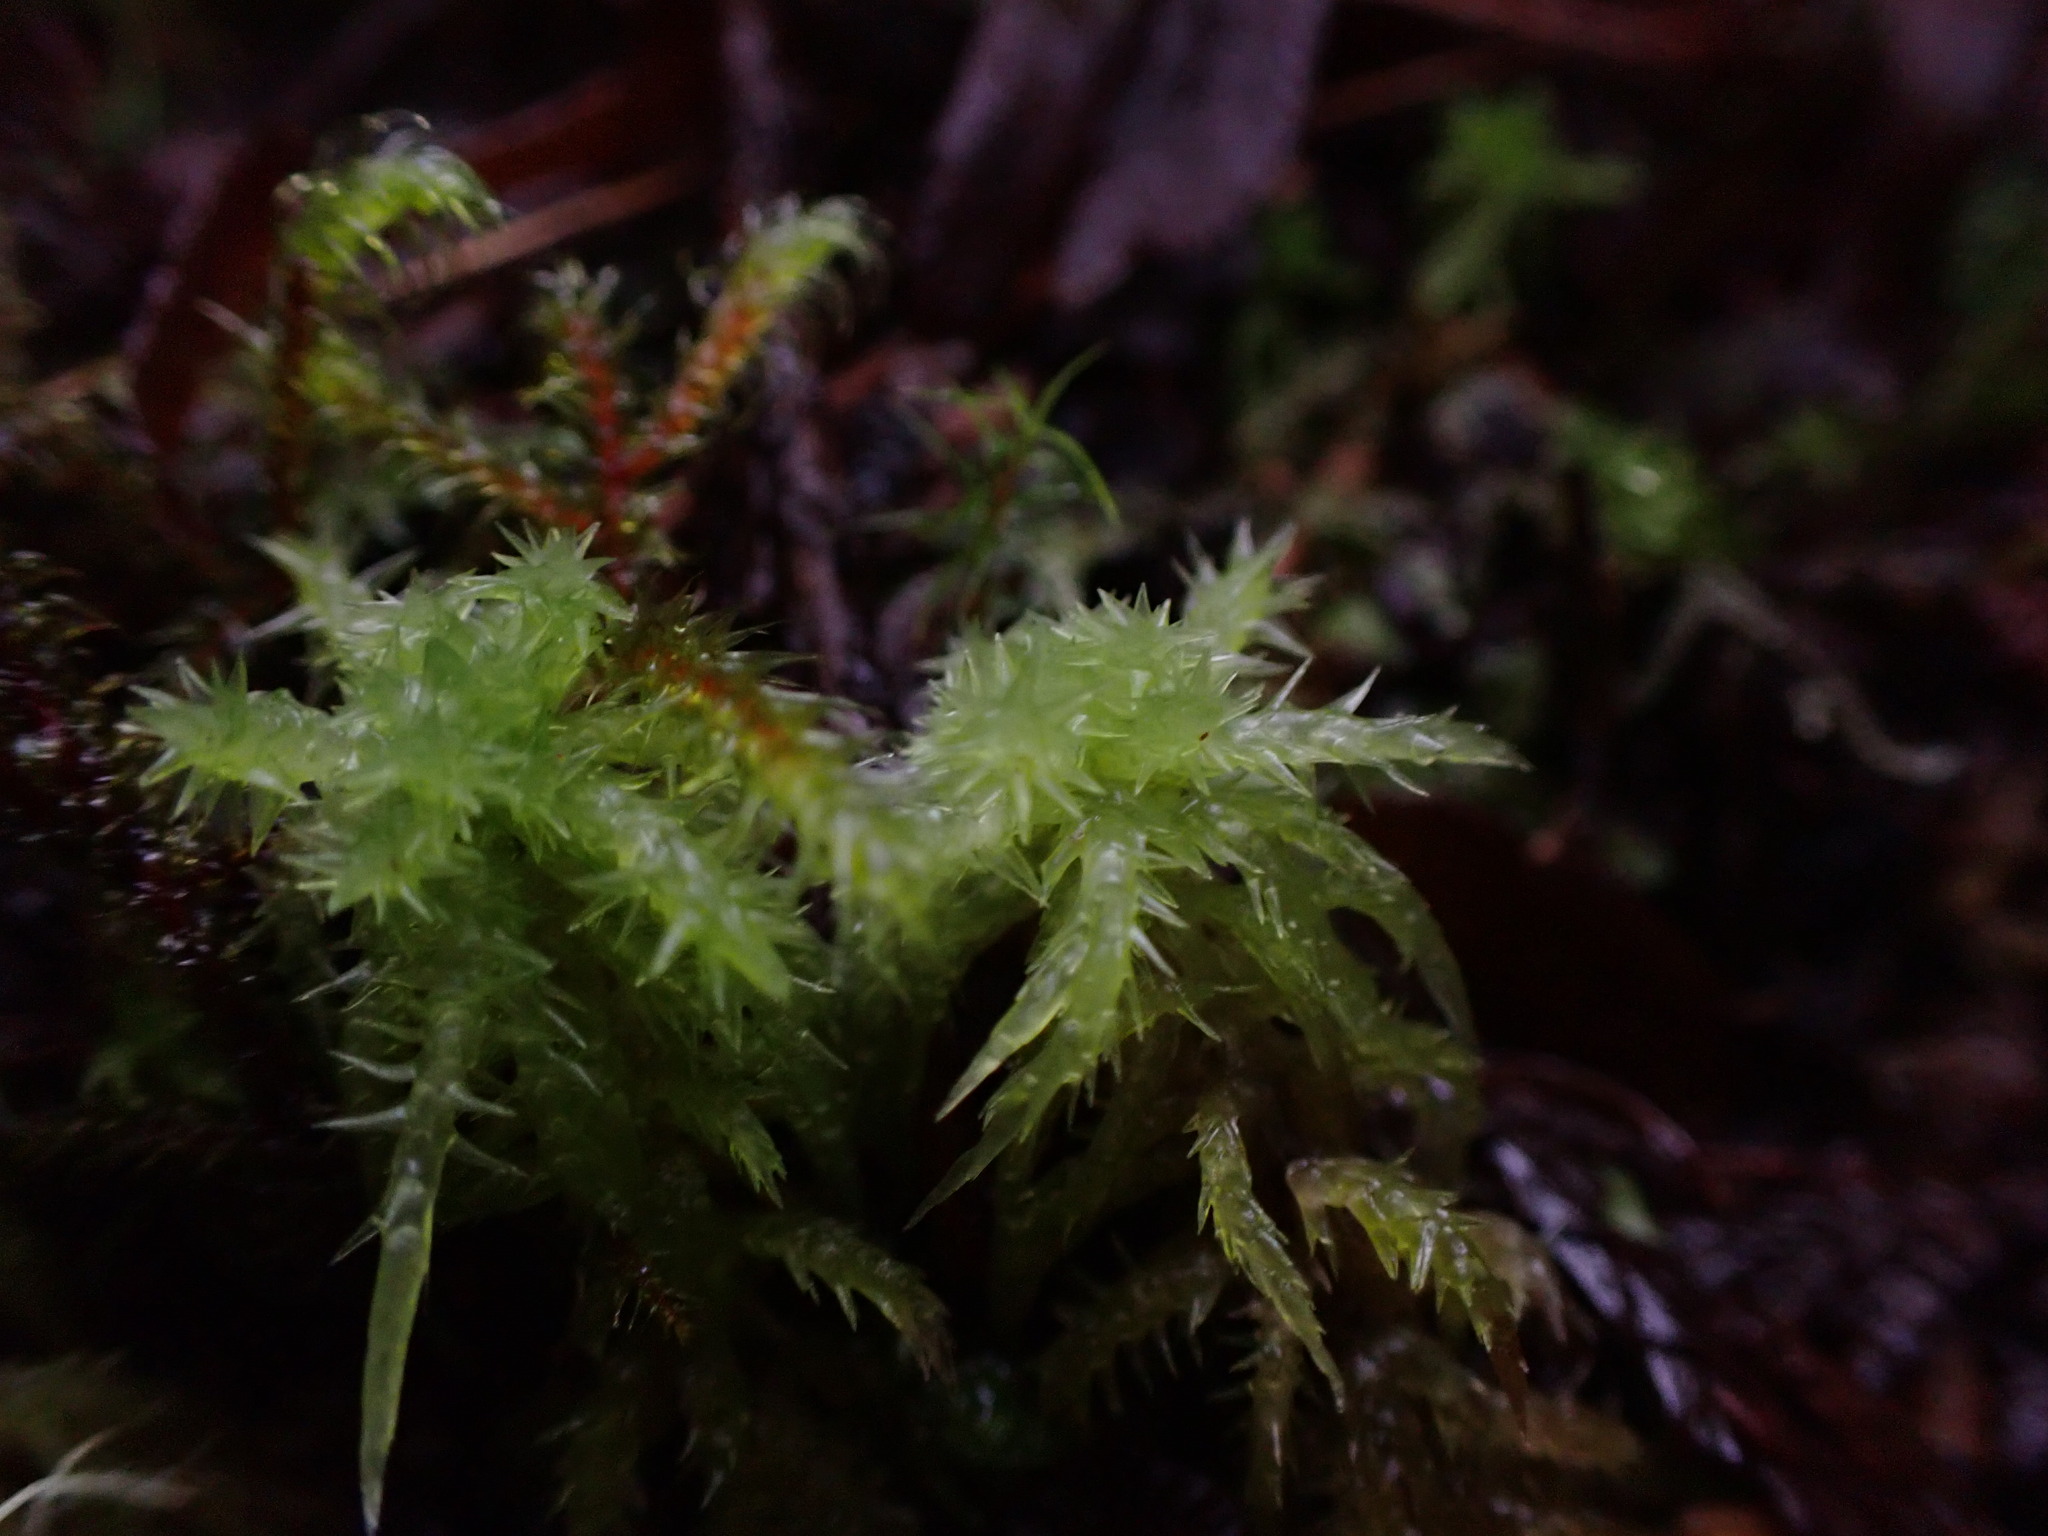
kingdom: Plantae
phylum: Bryophyta
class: Sphagnopsida
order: Sphagnales
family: Sphagnaceae
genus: Sphagnum
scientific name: Sphagnum squarrosum
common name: Shaggy peat moss
